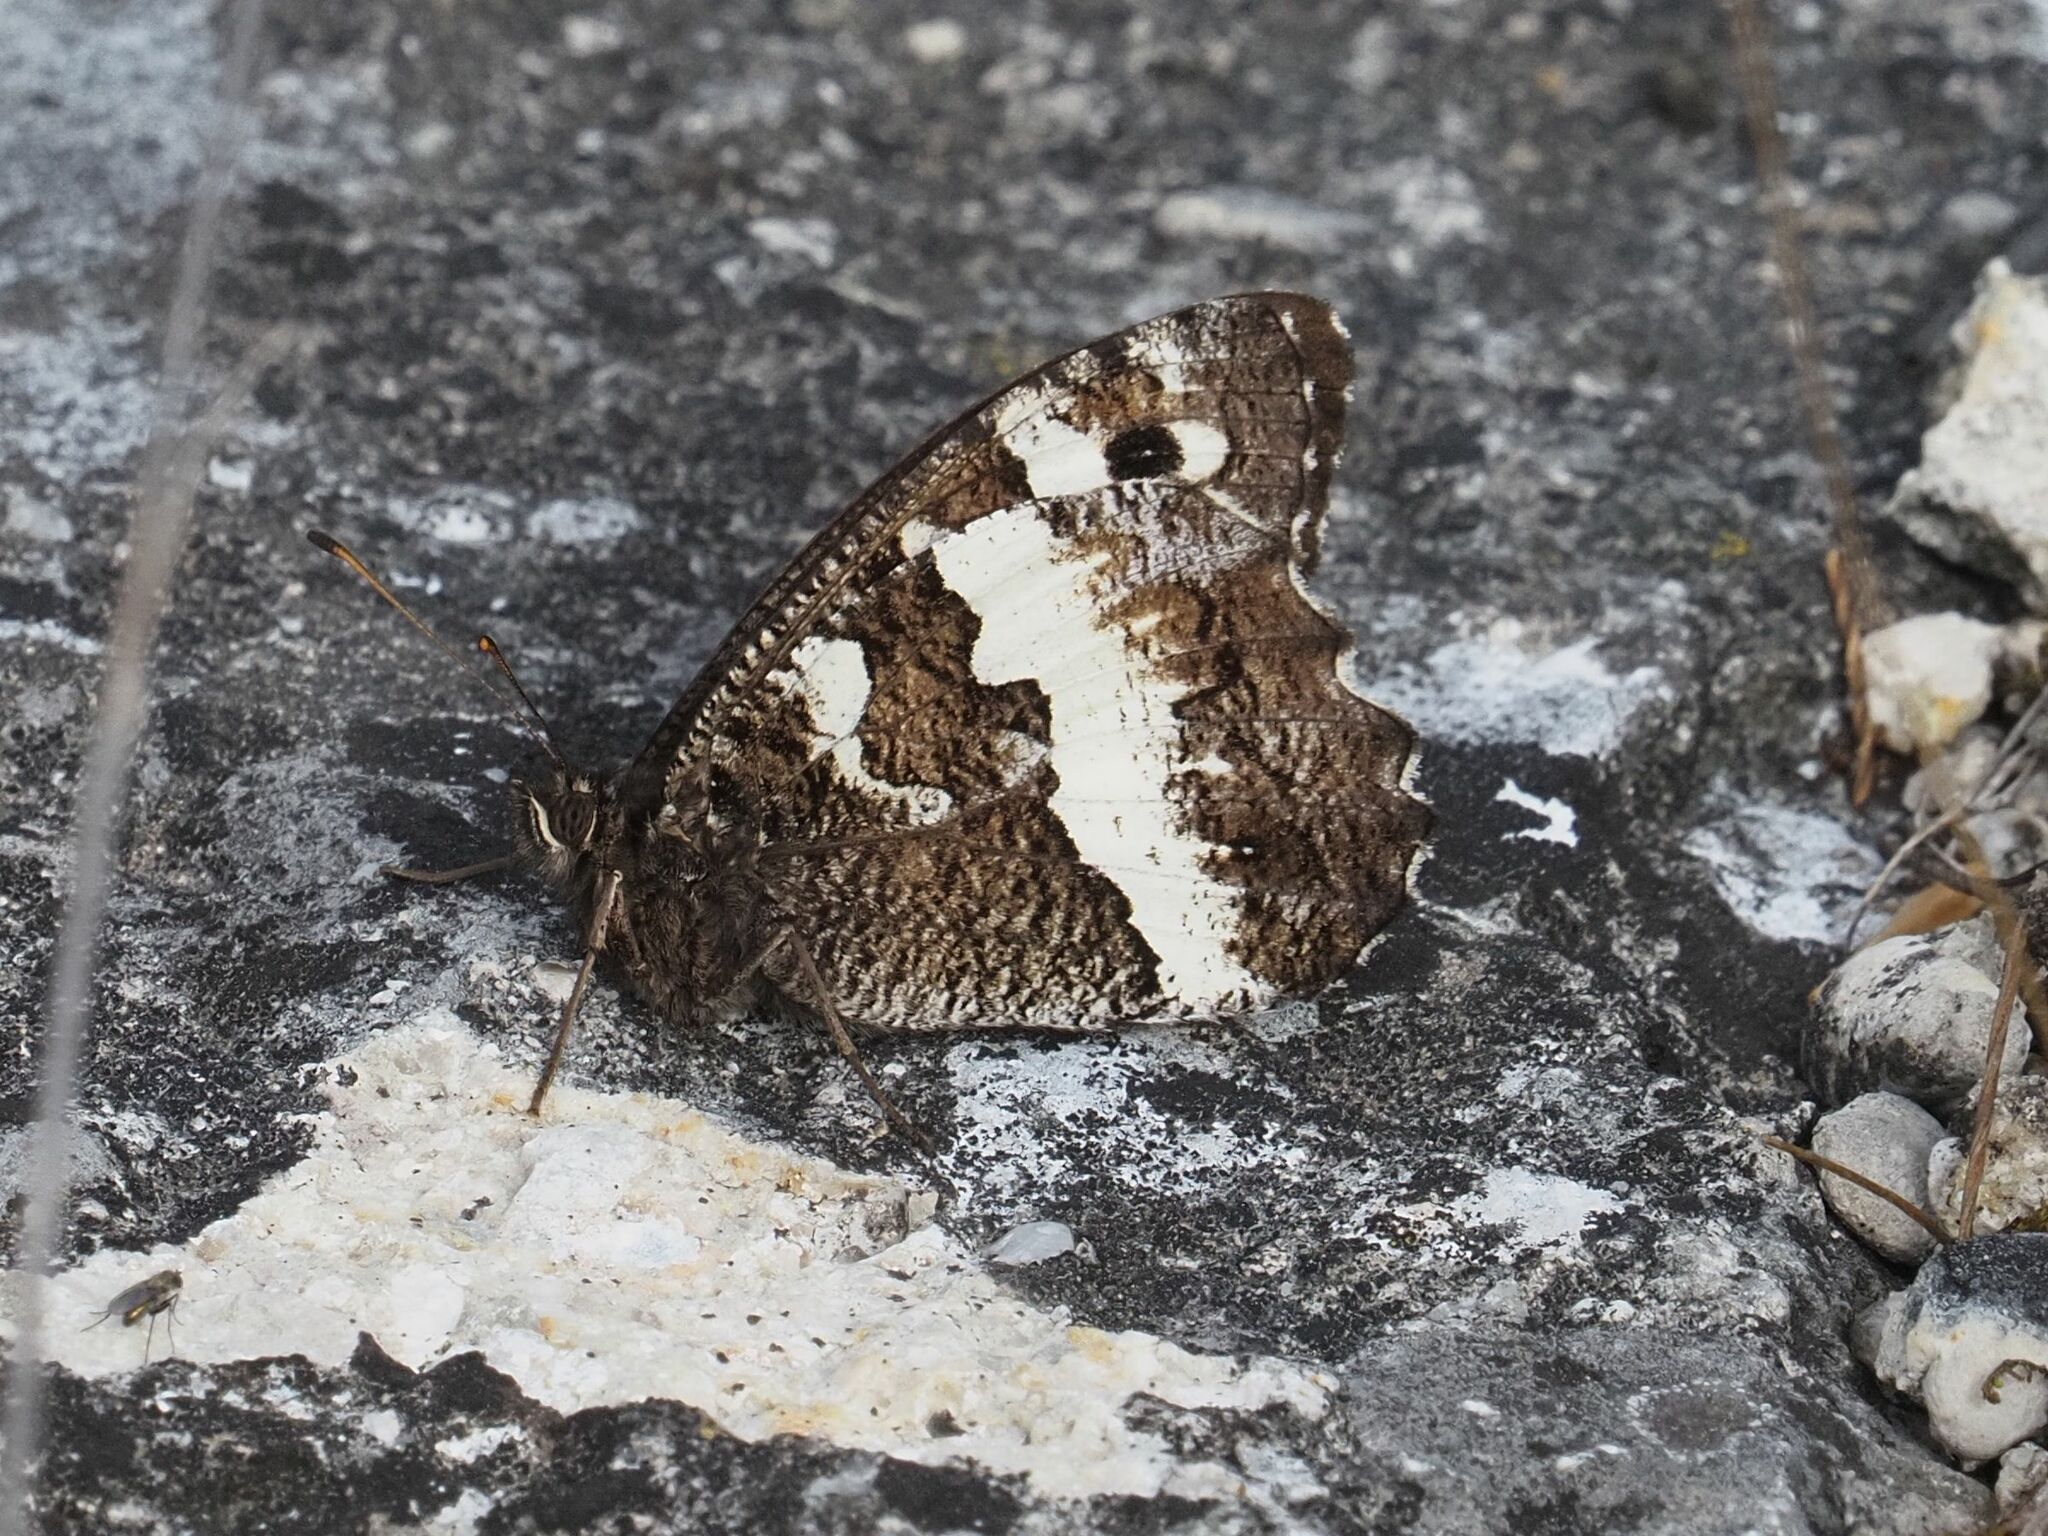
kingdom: Animalia
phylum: Arthropoda
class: Insecta
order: Lepidoptera
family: Lycaenidae
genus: Loweia
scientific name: Loweia tityrus
